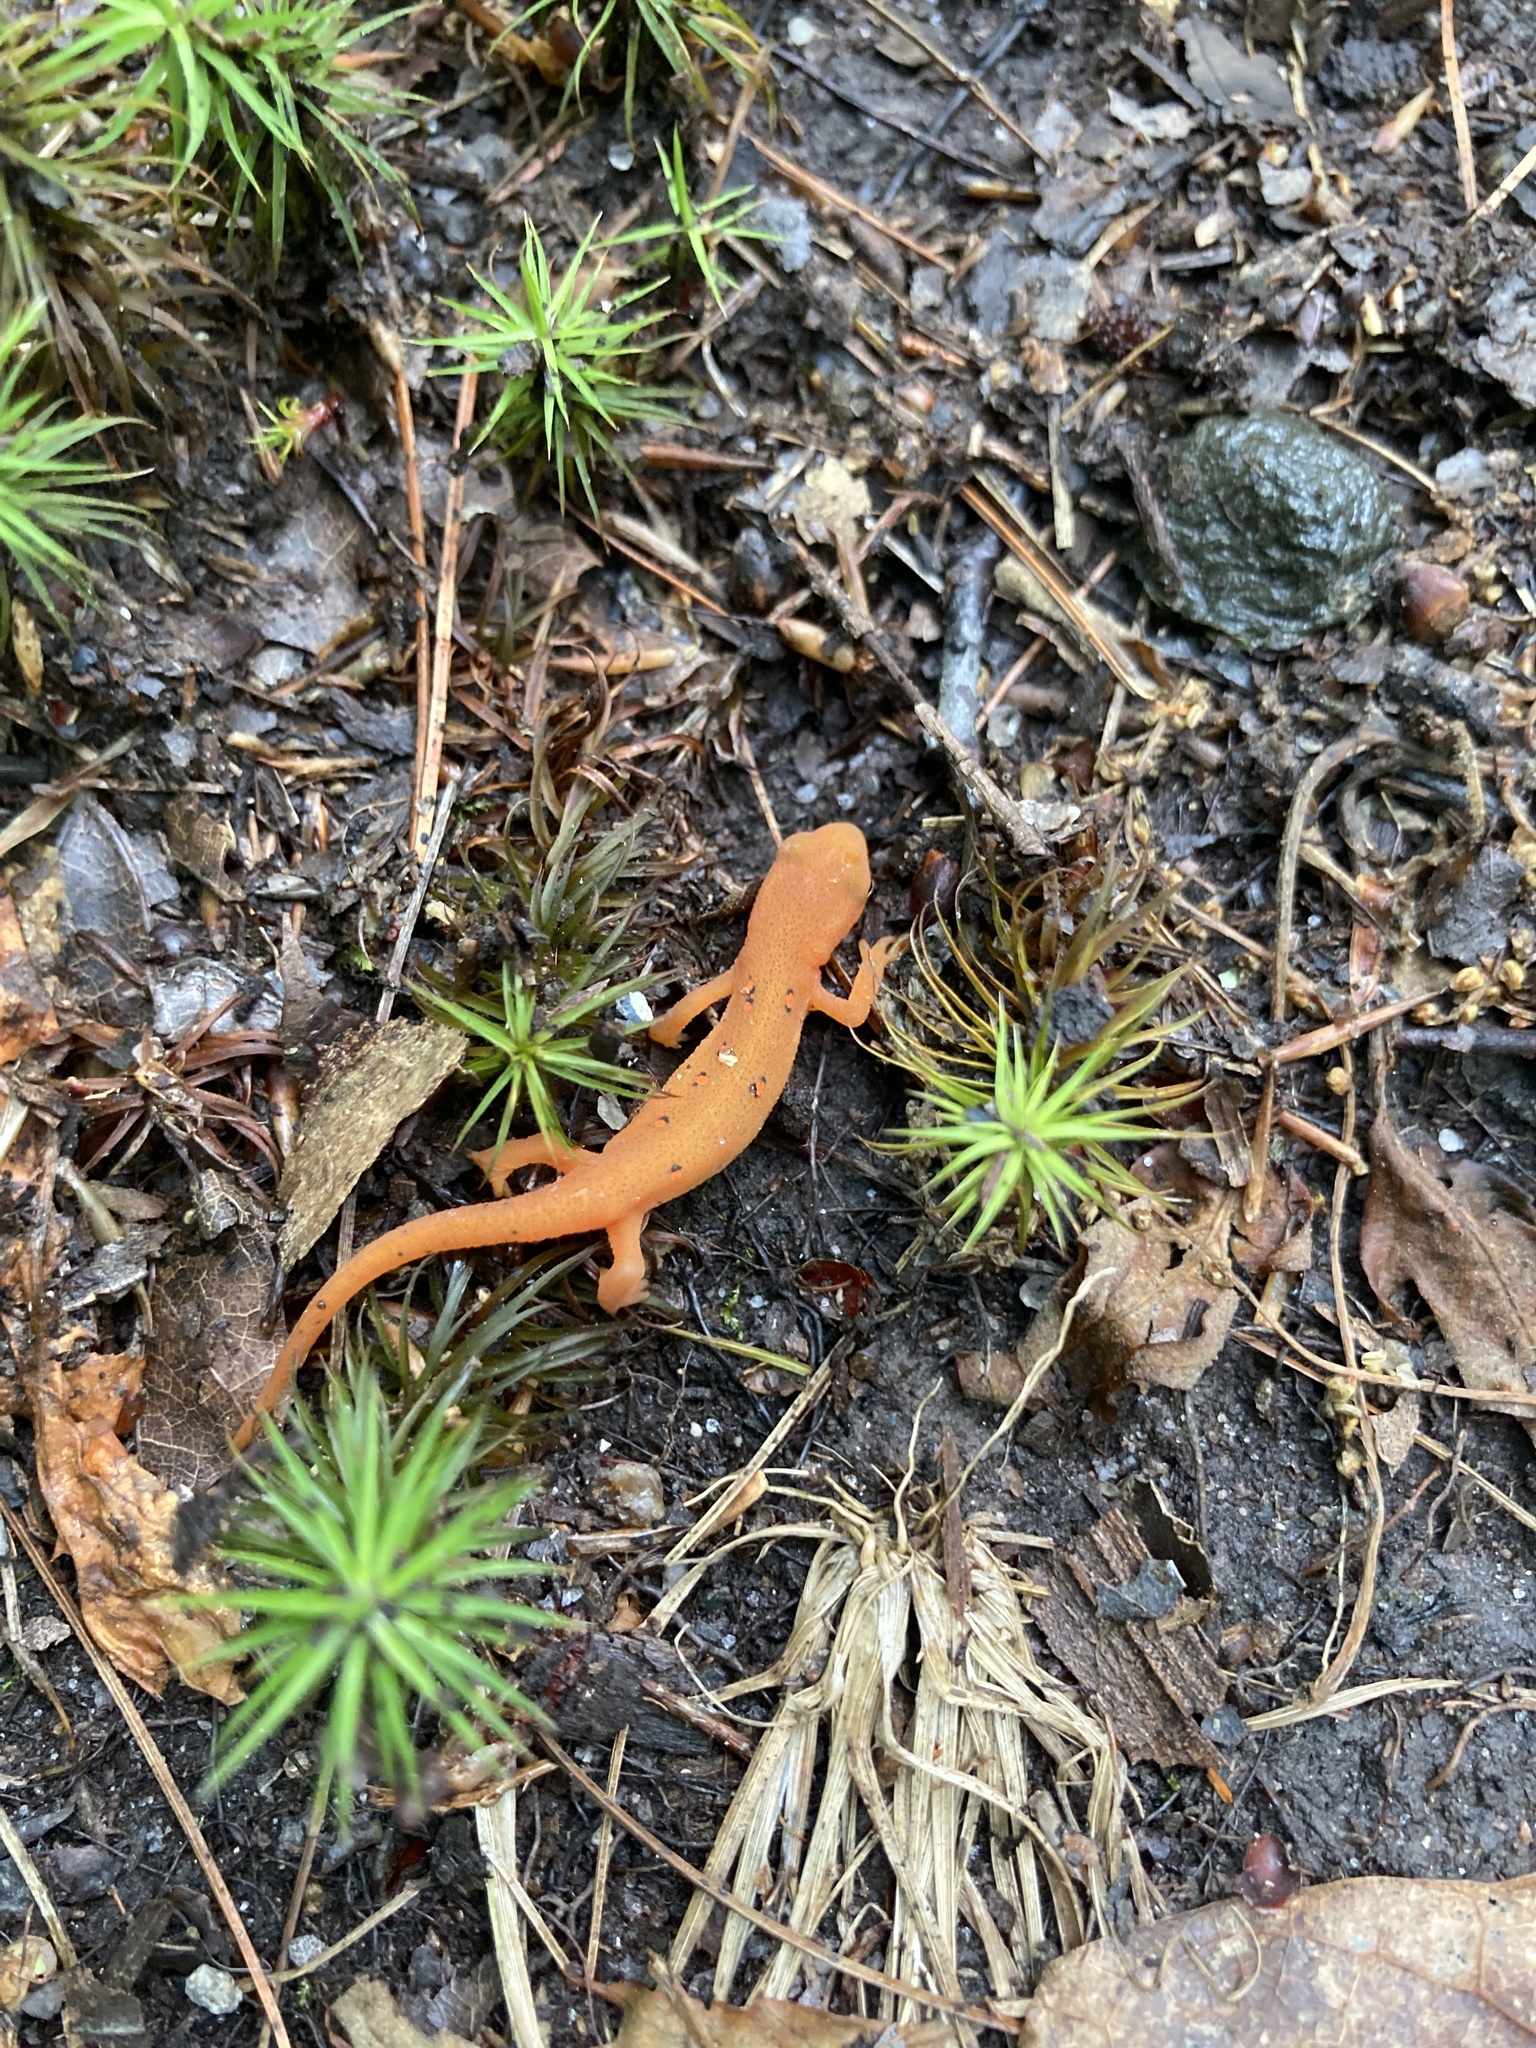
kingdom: Animalia
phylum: Chordata
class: Amphibia
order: Caudata
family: Salamandridae
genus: Notophthalmus
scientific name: Notophthalmus viridescens
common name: Eastern newt
